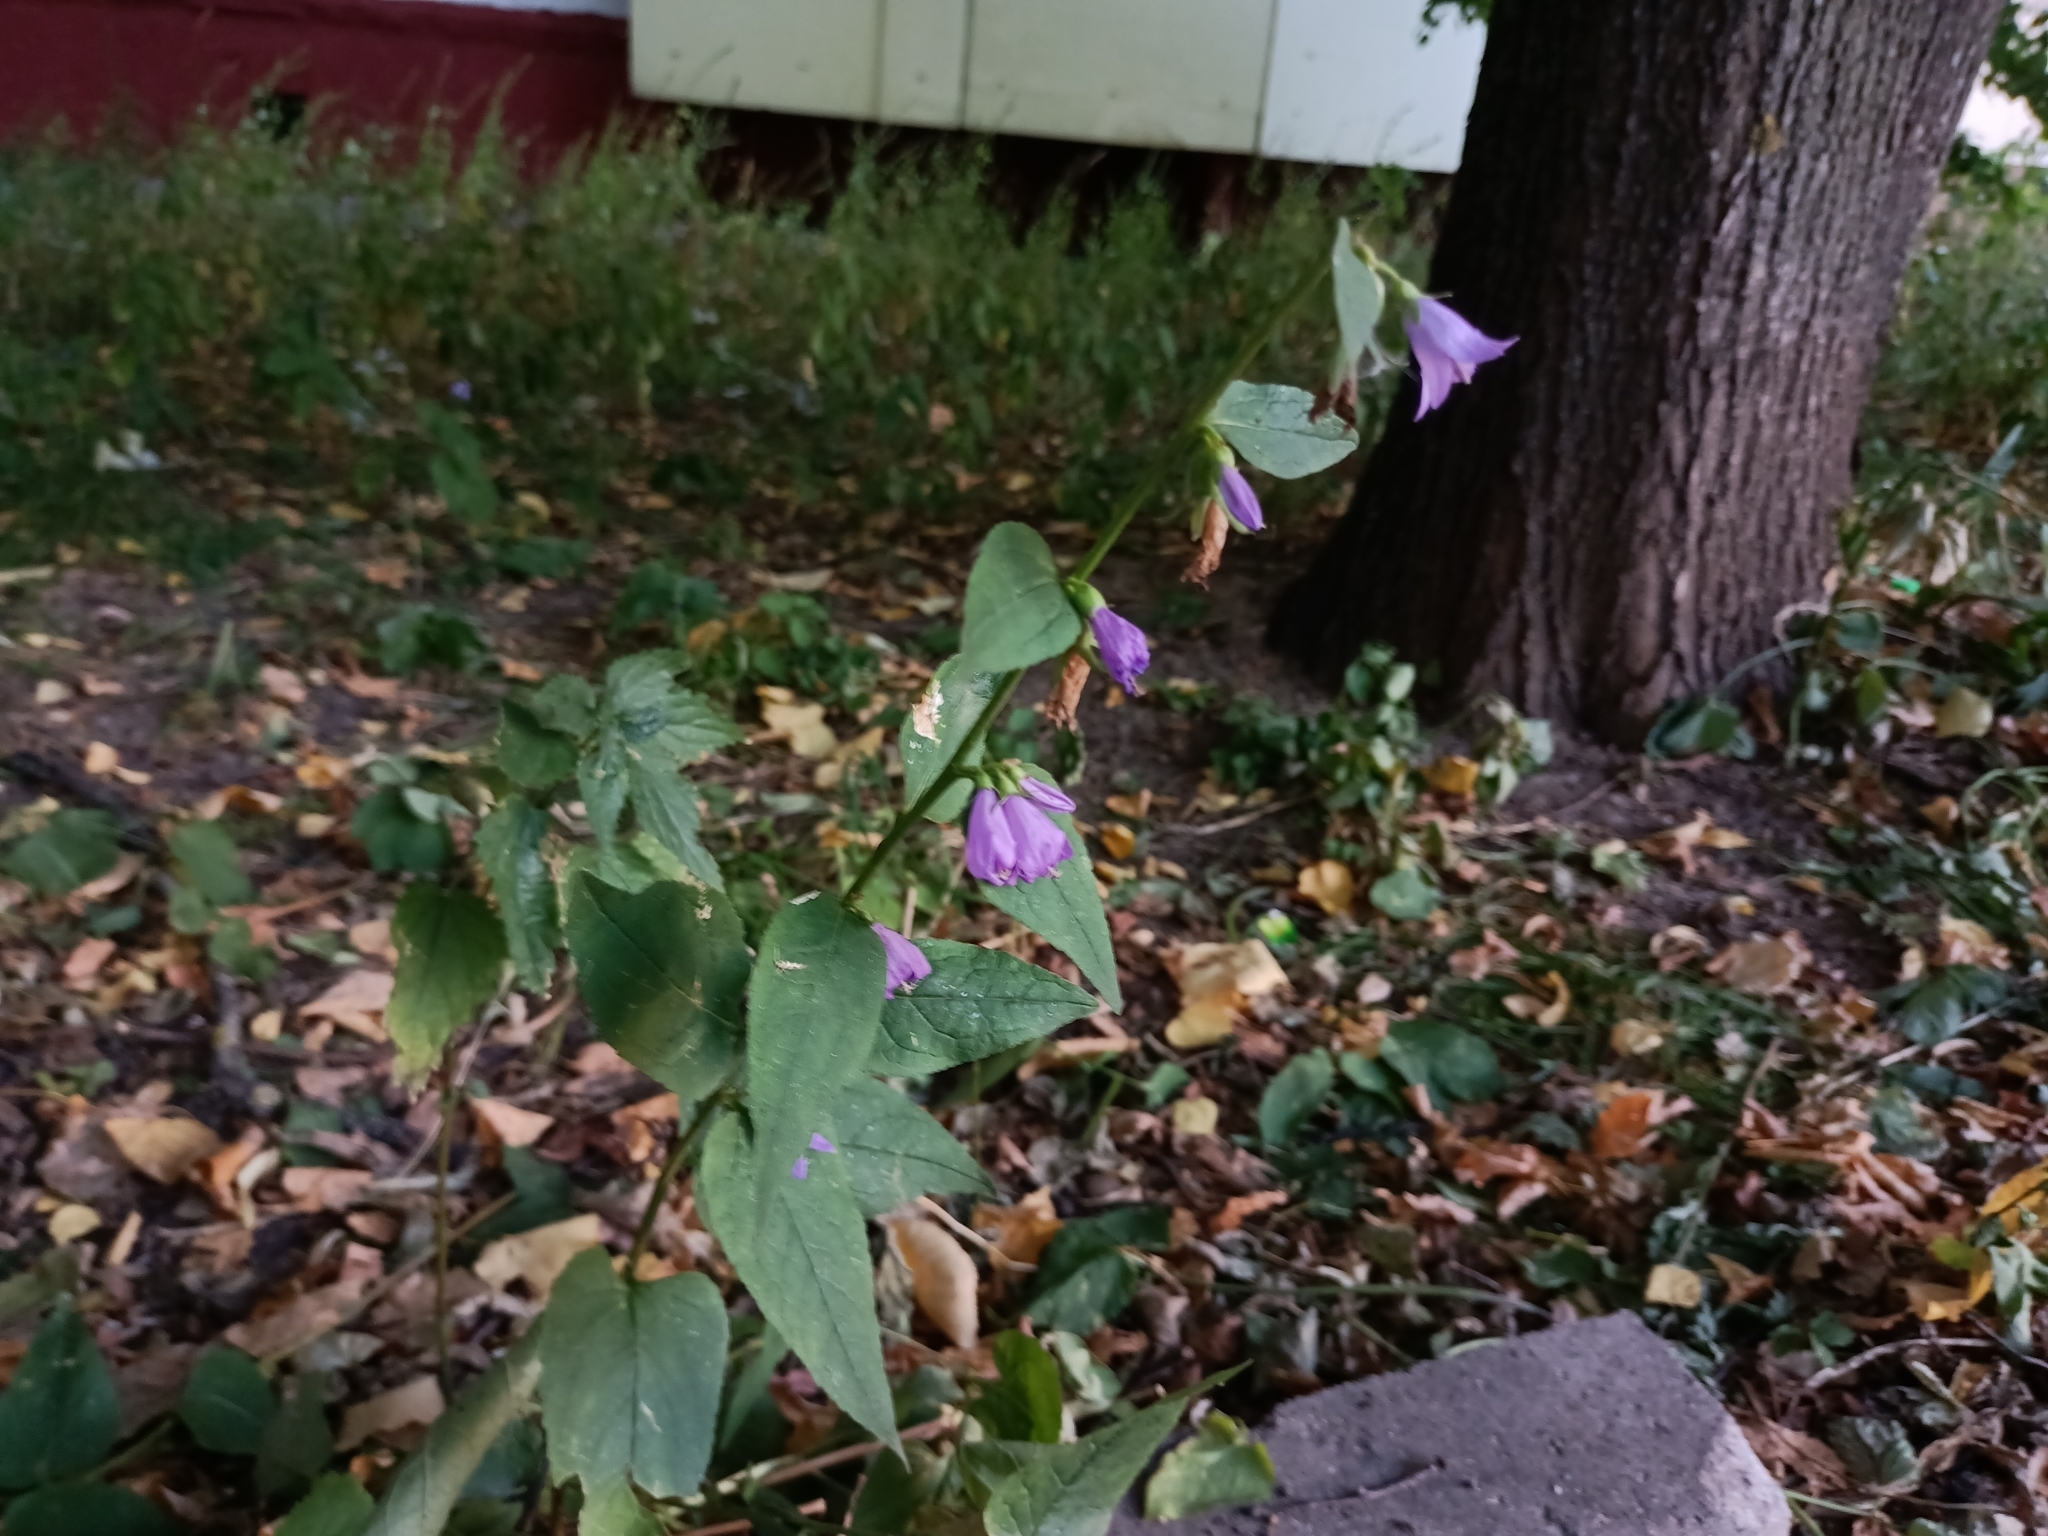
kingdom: Plantae
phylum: Tracheophyta
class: Magnoliopsida
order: Asterales
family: Campanulaceae
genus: Campanula
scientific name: Campanula rapunculoides
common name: Creeping bellflower
